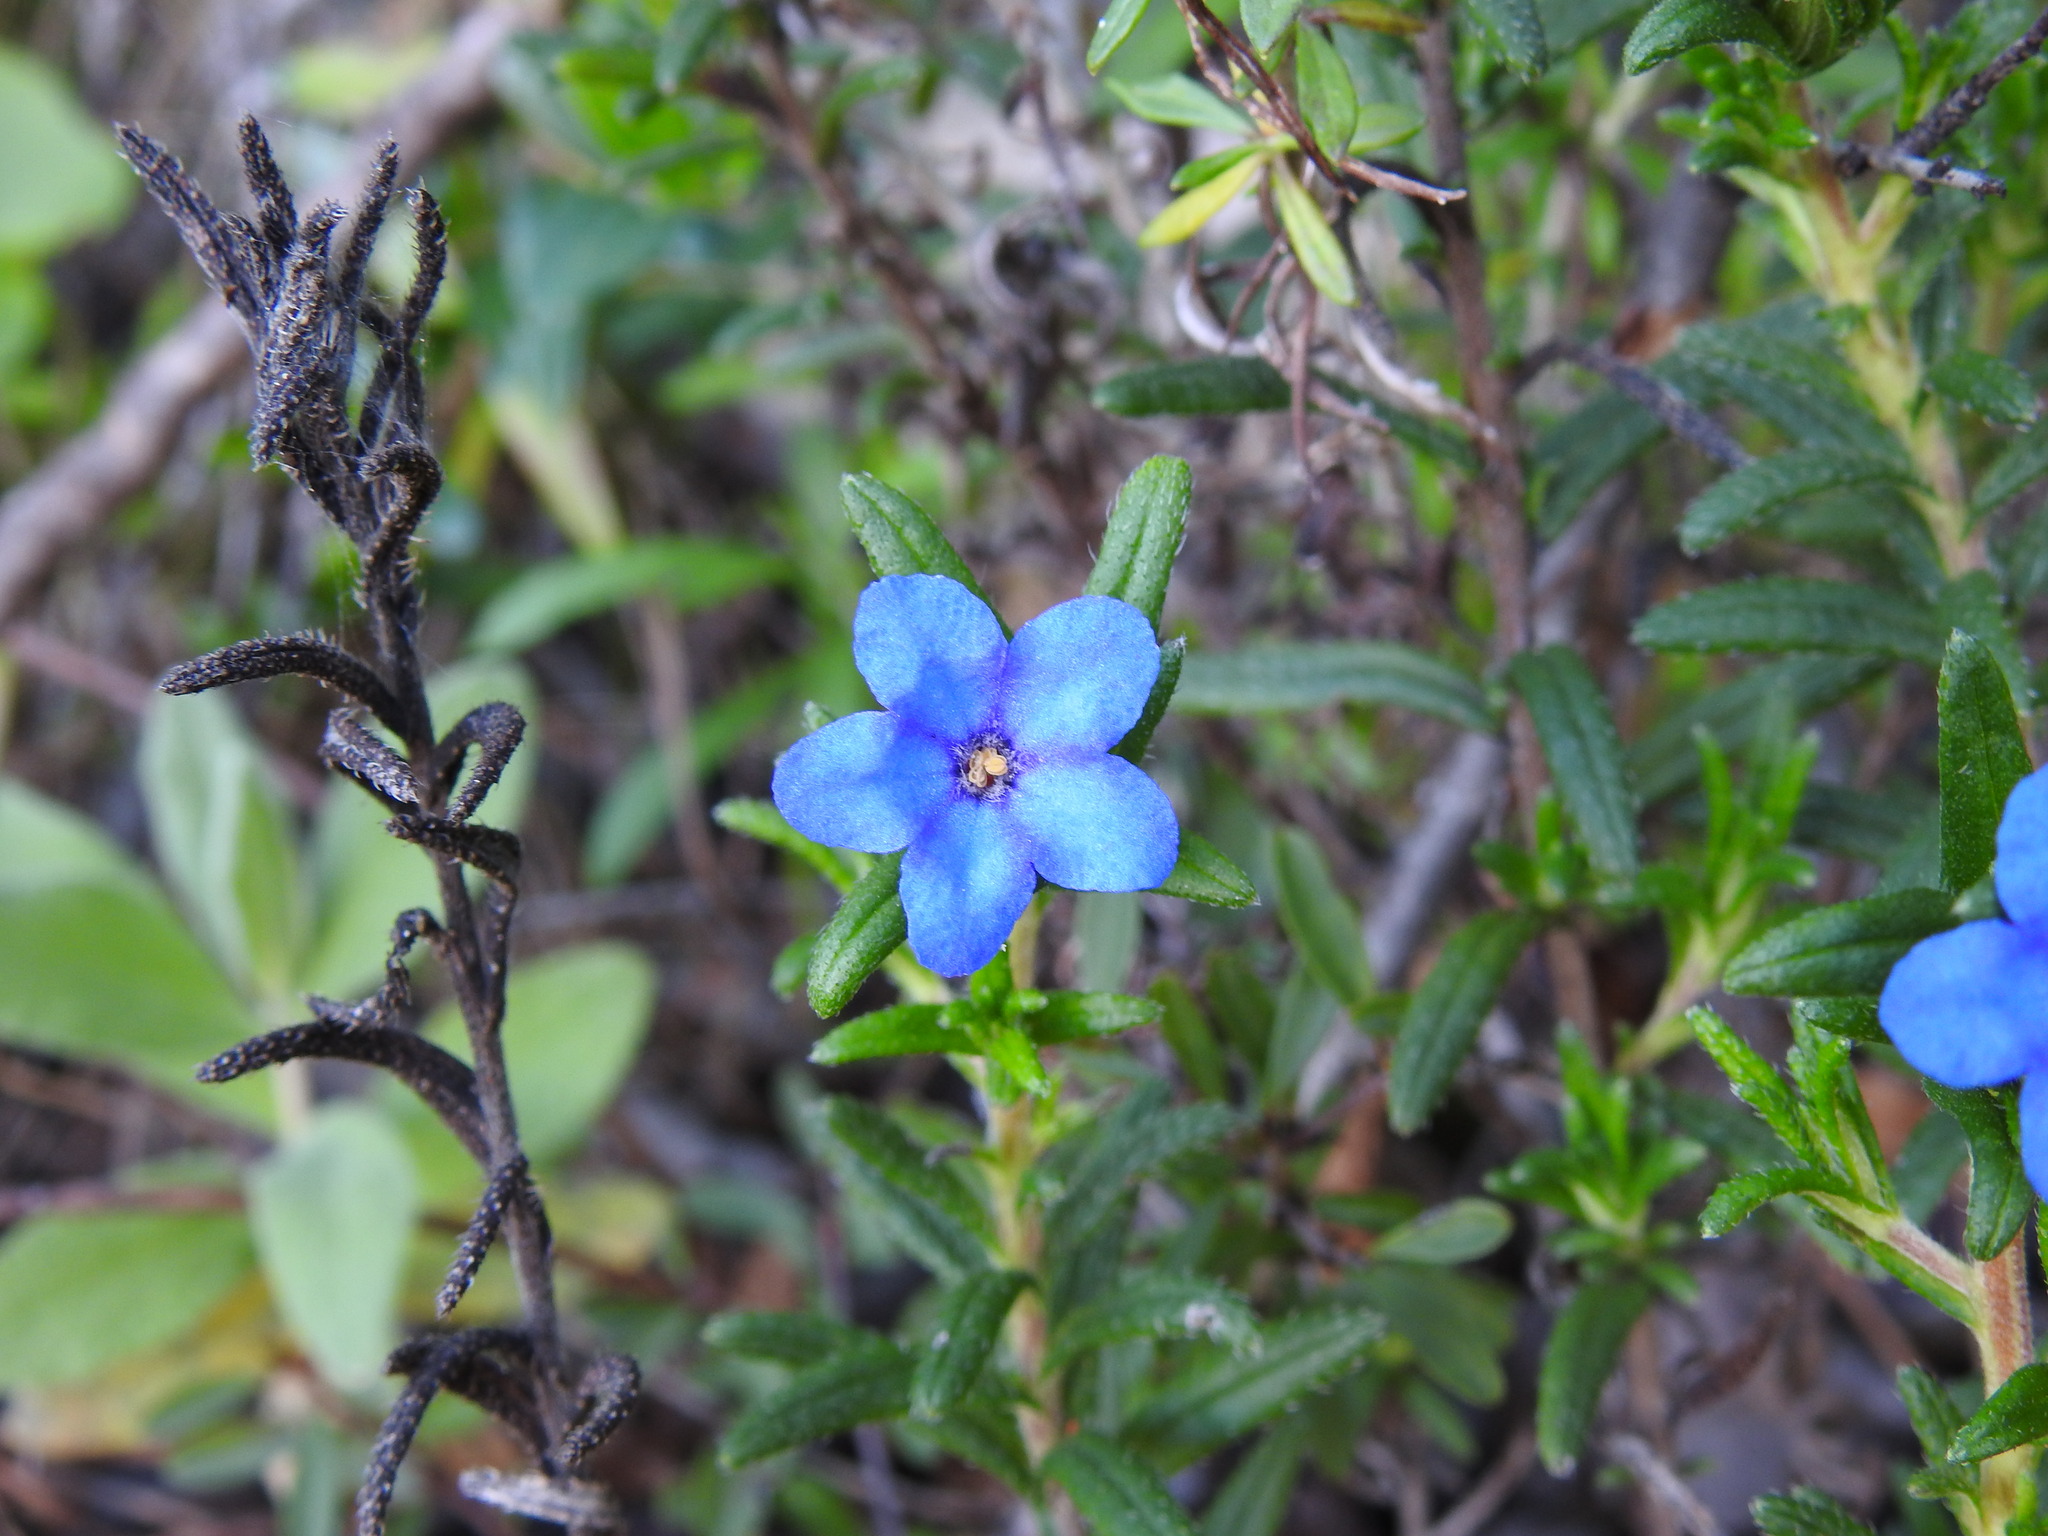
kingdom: Plantae
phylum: Tracheophyta
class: Magnoliopsida
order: Boraginales
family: Boraginaceae
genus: Glandora
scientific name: Glandora prostrata
